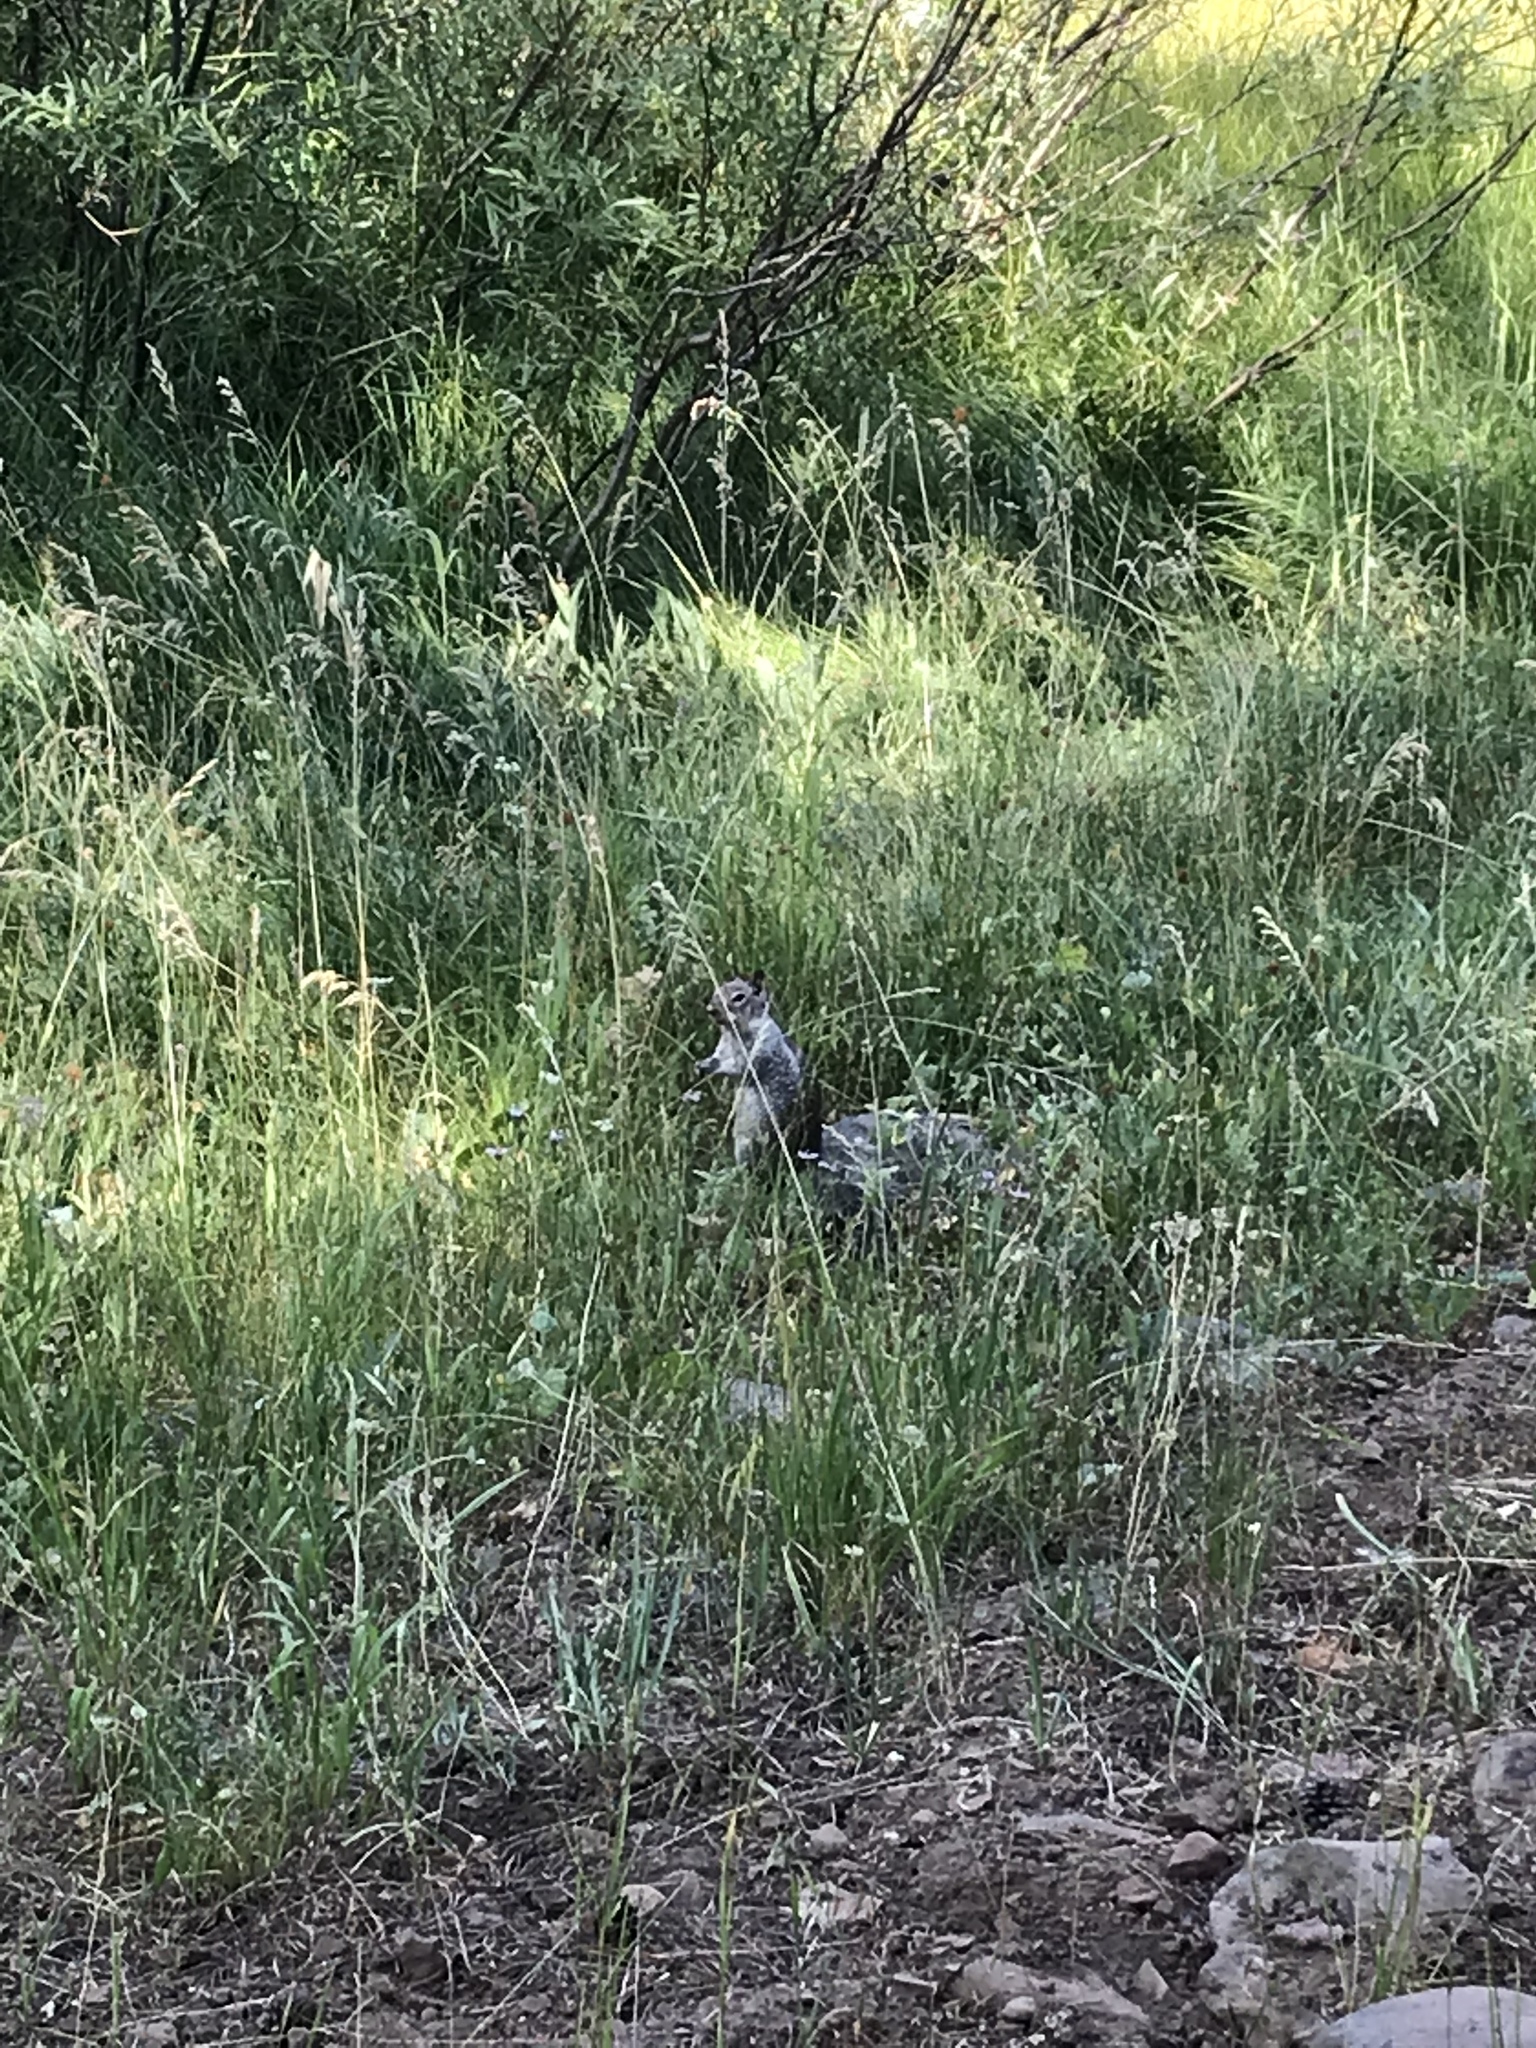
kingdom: Animalia
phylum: Chordata
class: Mammalia
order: Rodentia
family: Sciuridae
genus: Otospermophilus
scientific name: Otospermophilus beecheyi
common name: California ground squirrel
